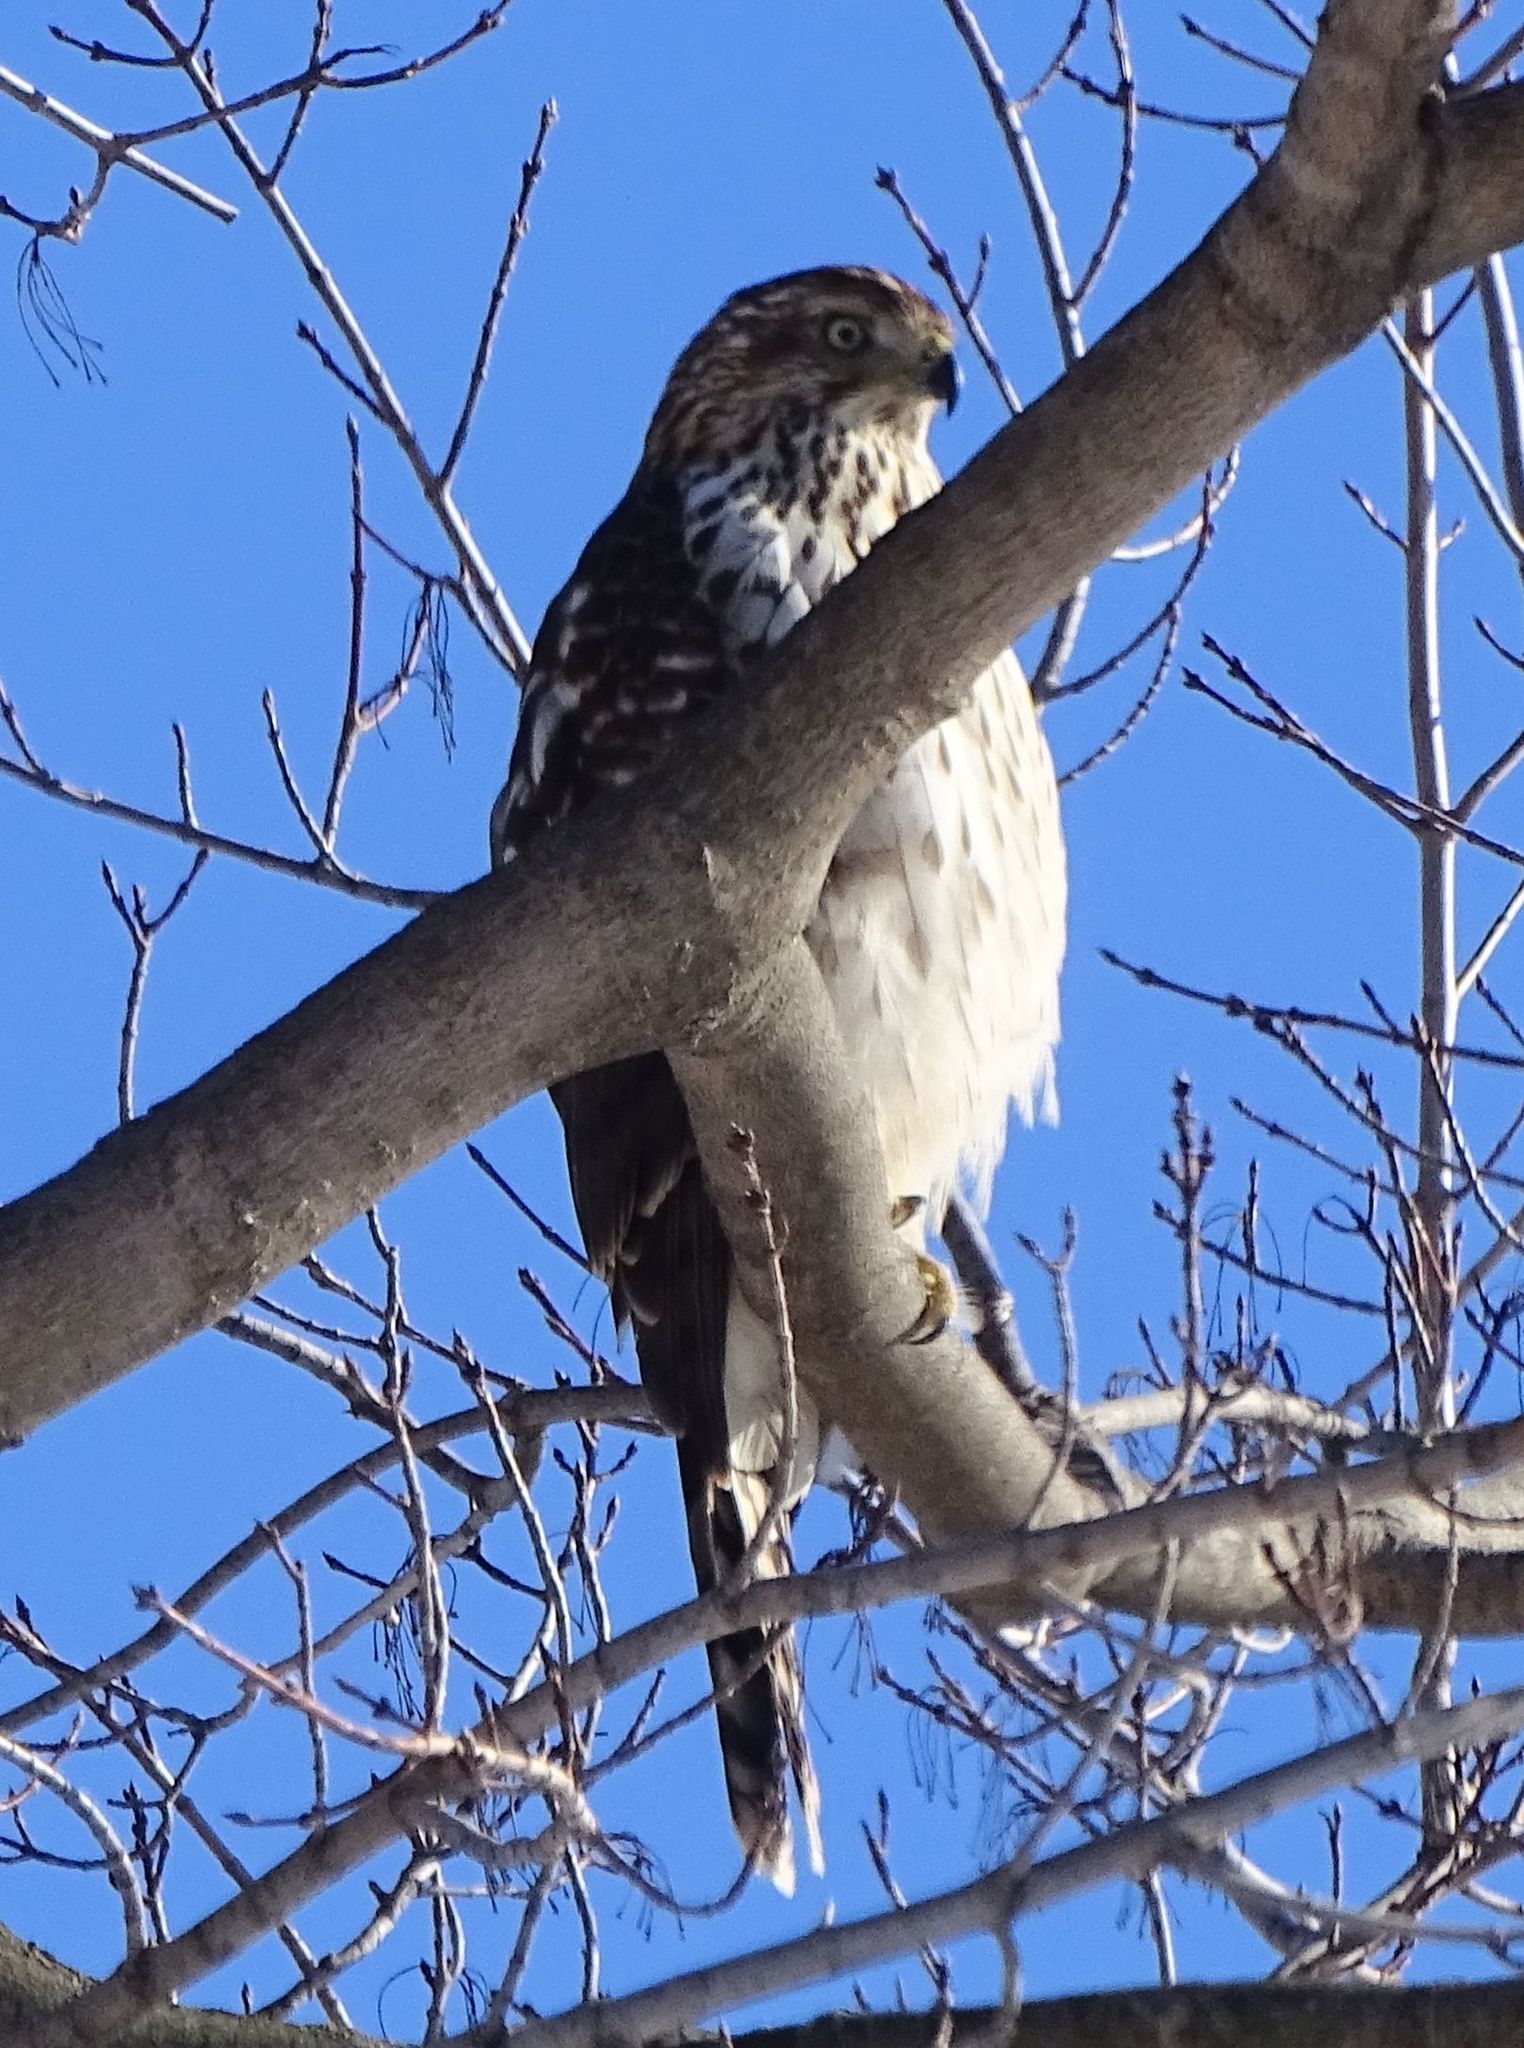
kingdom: Animalia
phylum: Chordata
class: Aves
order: Accipitriformes
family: Accipitridae
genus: Accipiter
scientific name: Accipiter cooperii
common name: Cooper's hawk
